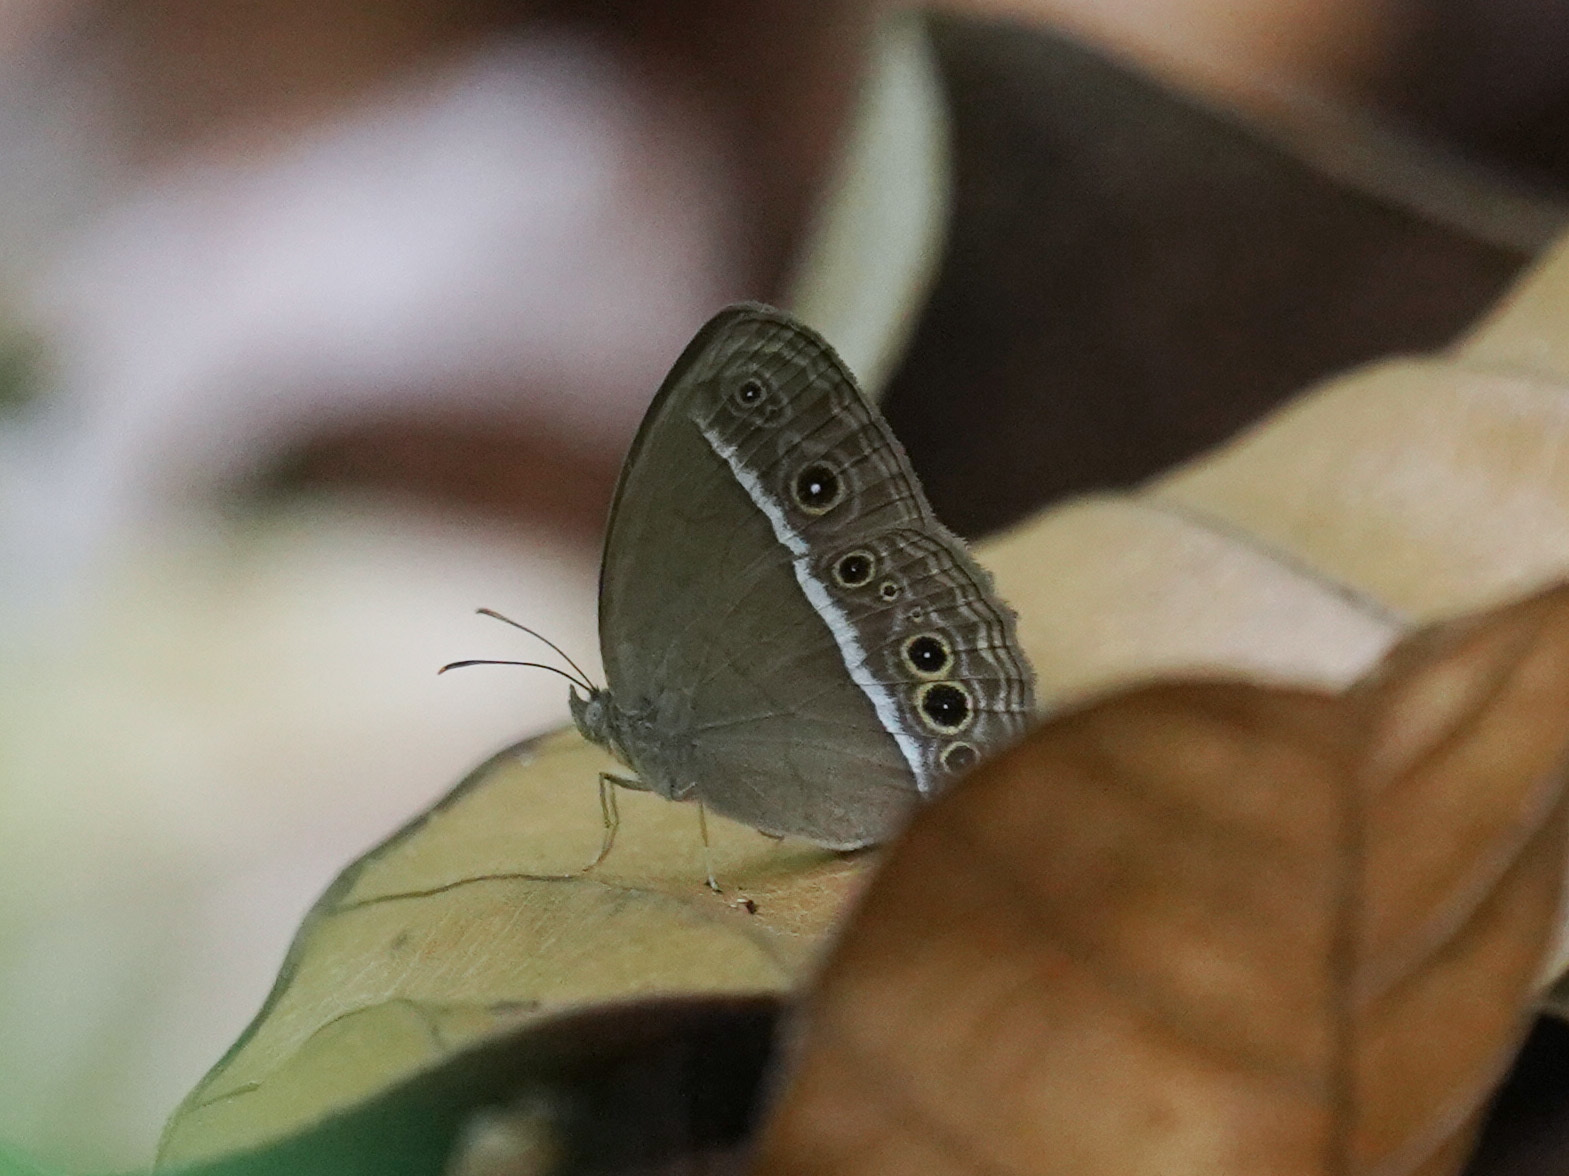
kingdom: Animalia
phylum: Arthropoda
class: Insecta
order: Lepidoptera
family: Nymphalidae
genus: Mycalesis
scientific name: Mycalesis mineus
